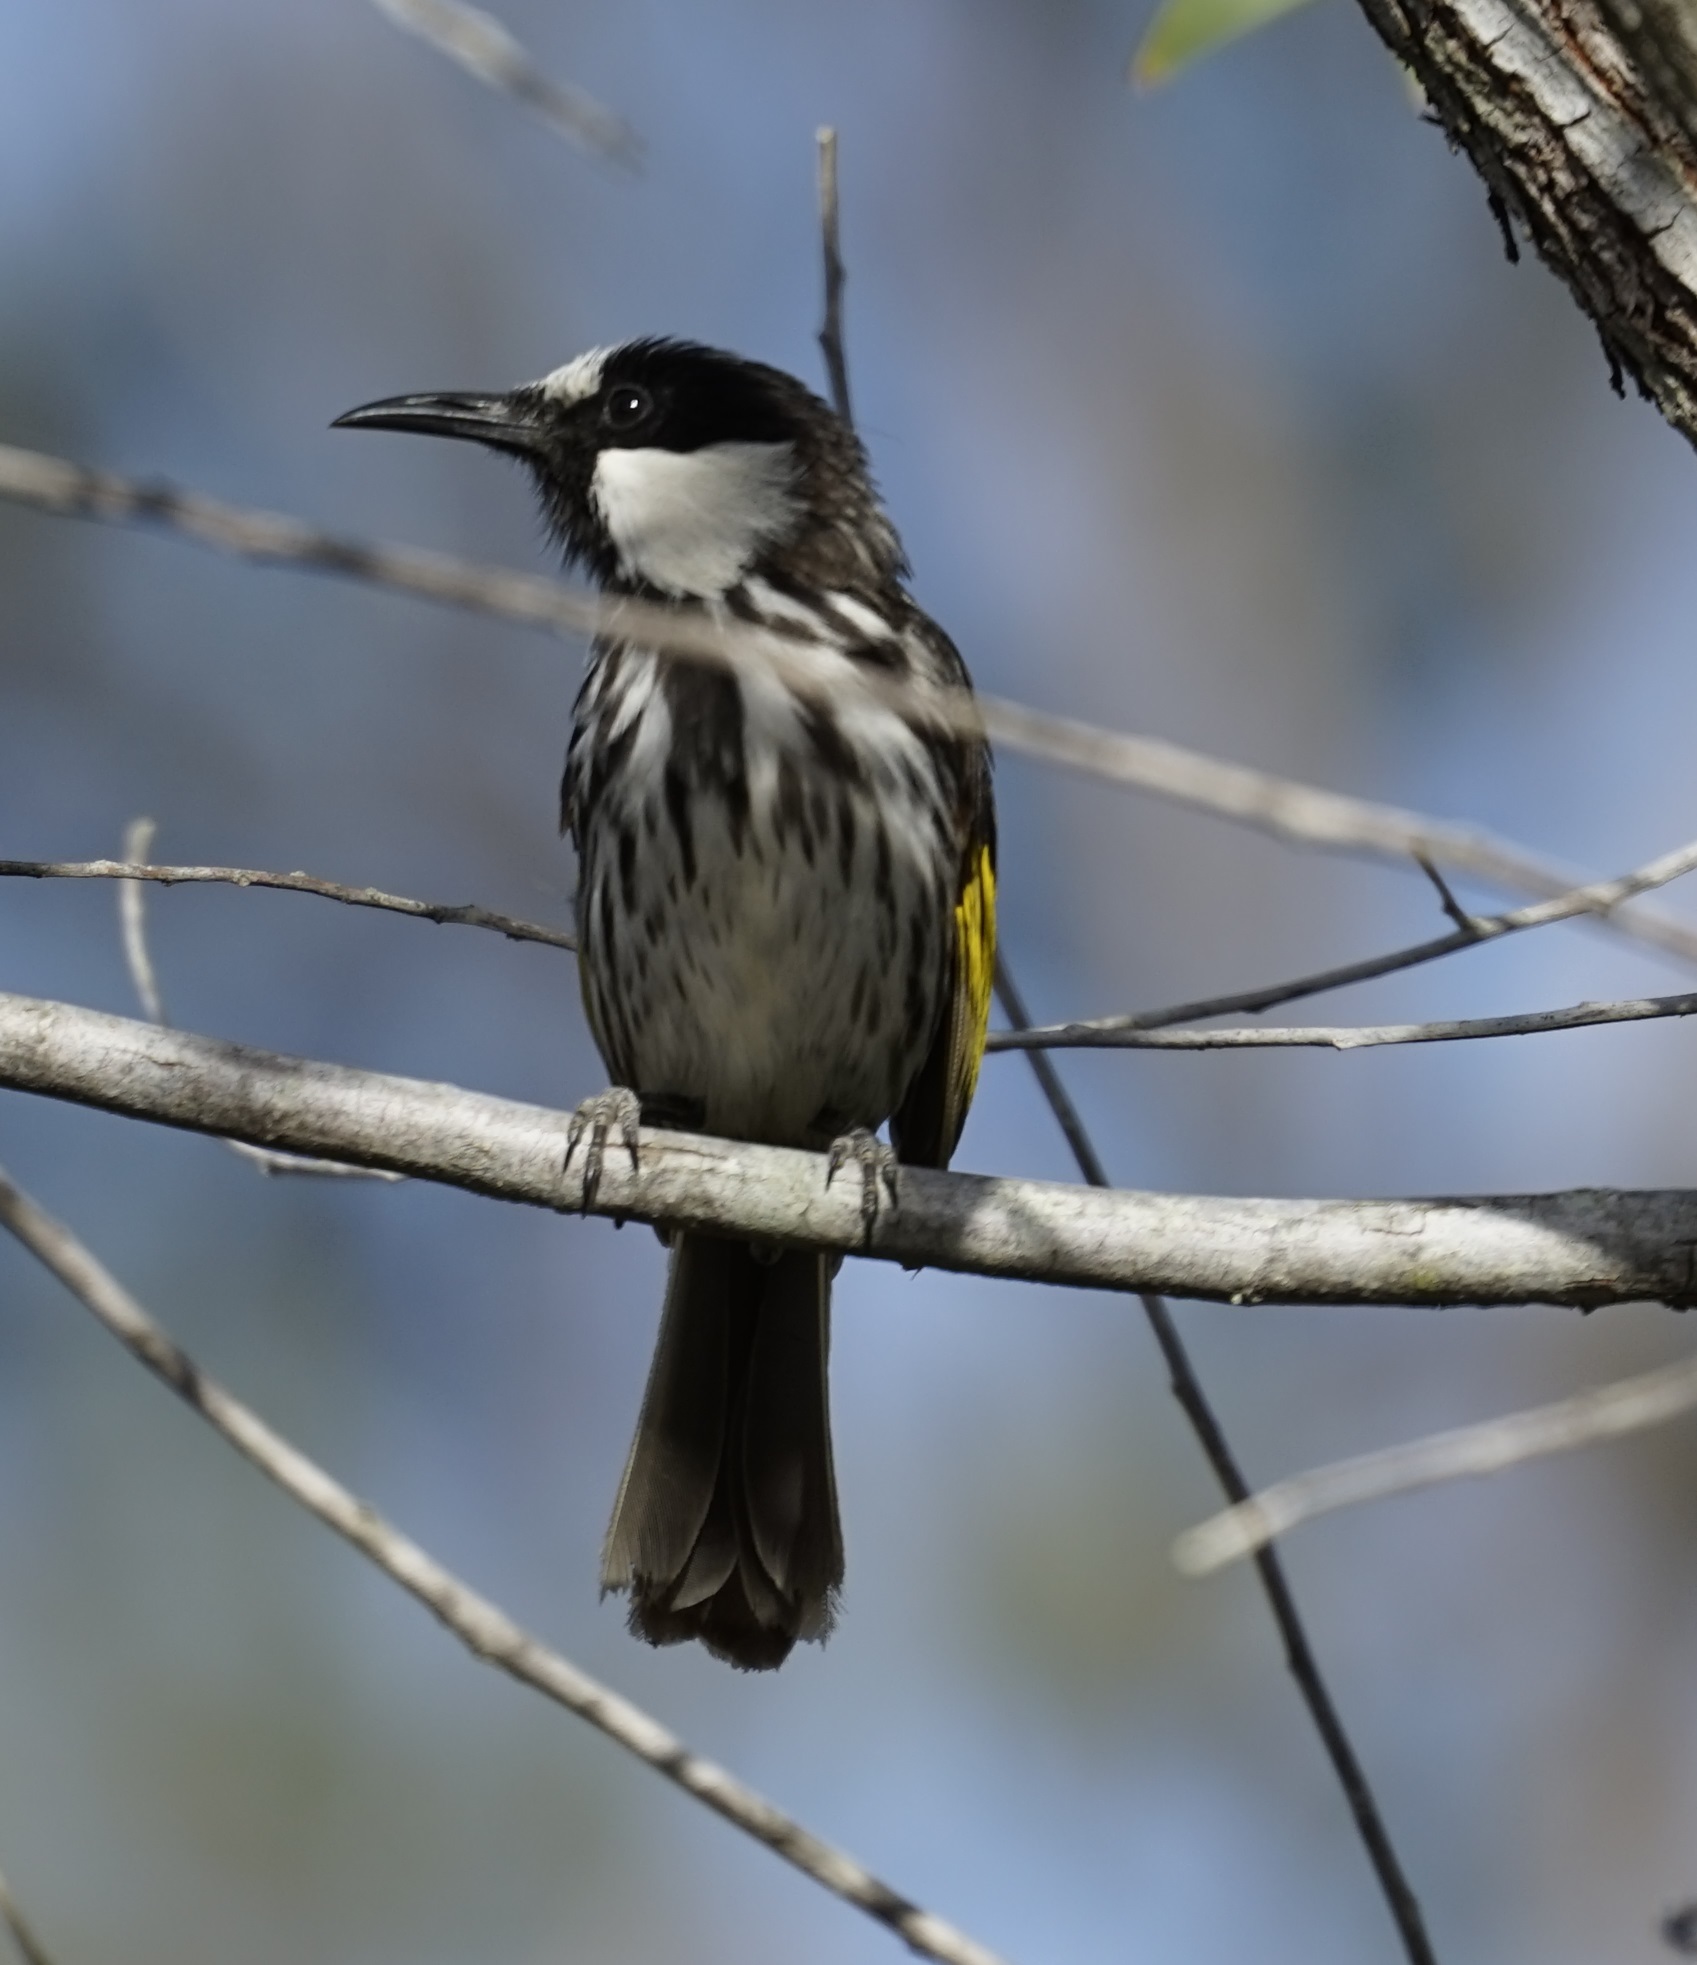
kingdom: Animalia
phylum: Chordata
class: Aves
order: Passeriformes
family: Meliphagidae
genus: Phylidonyris
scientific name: Phylidonyris niger
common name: White-cheeked honeyeater
